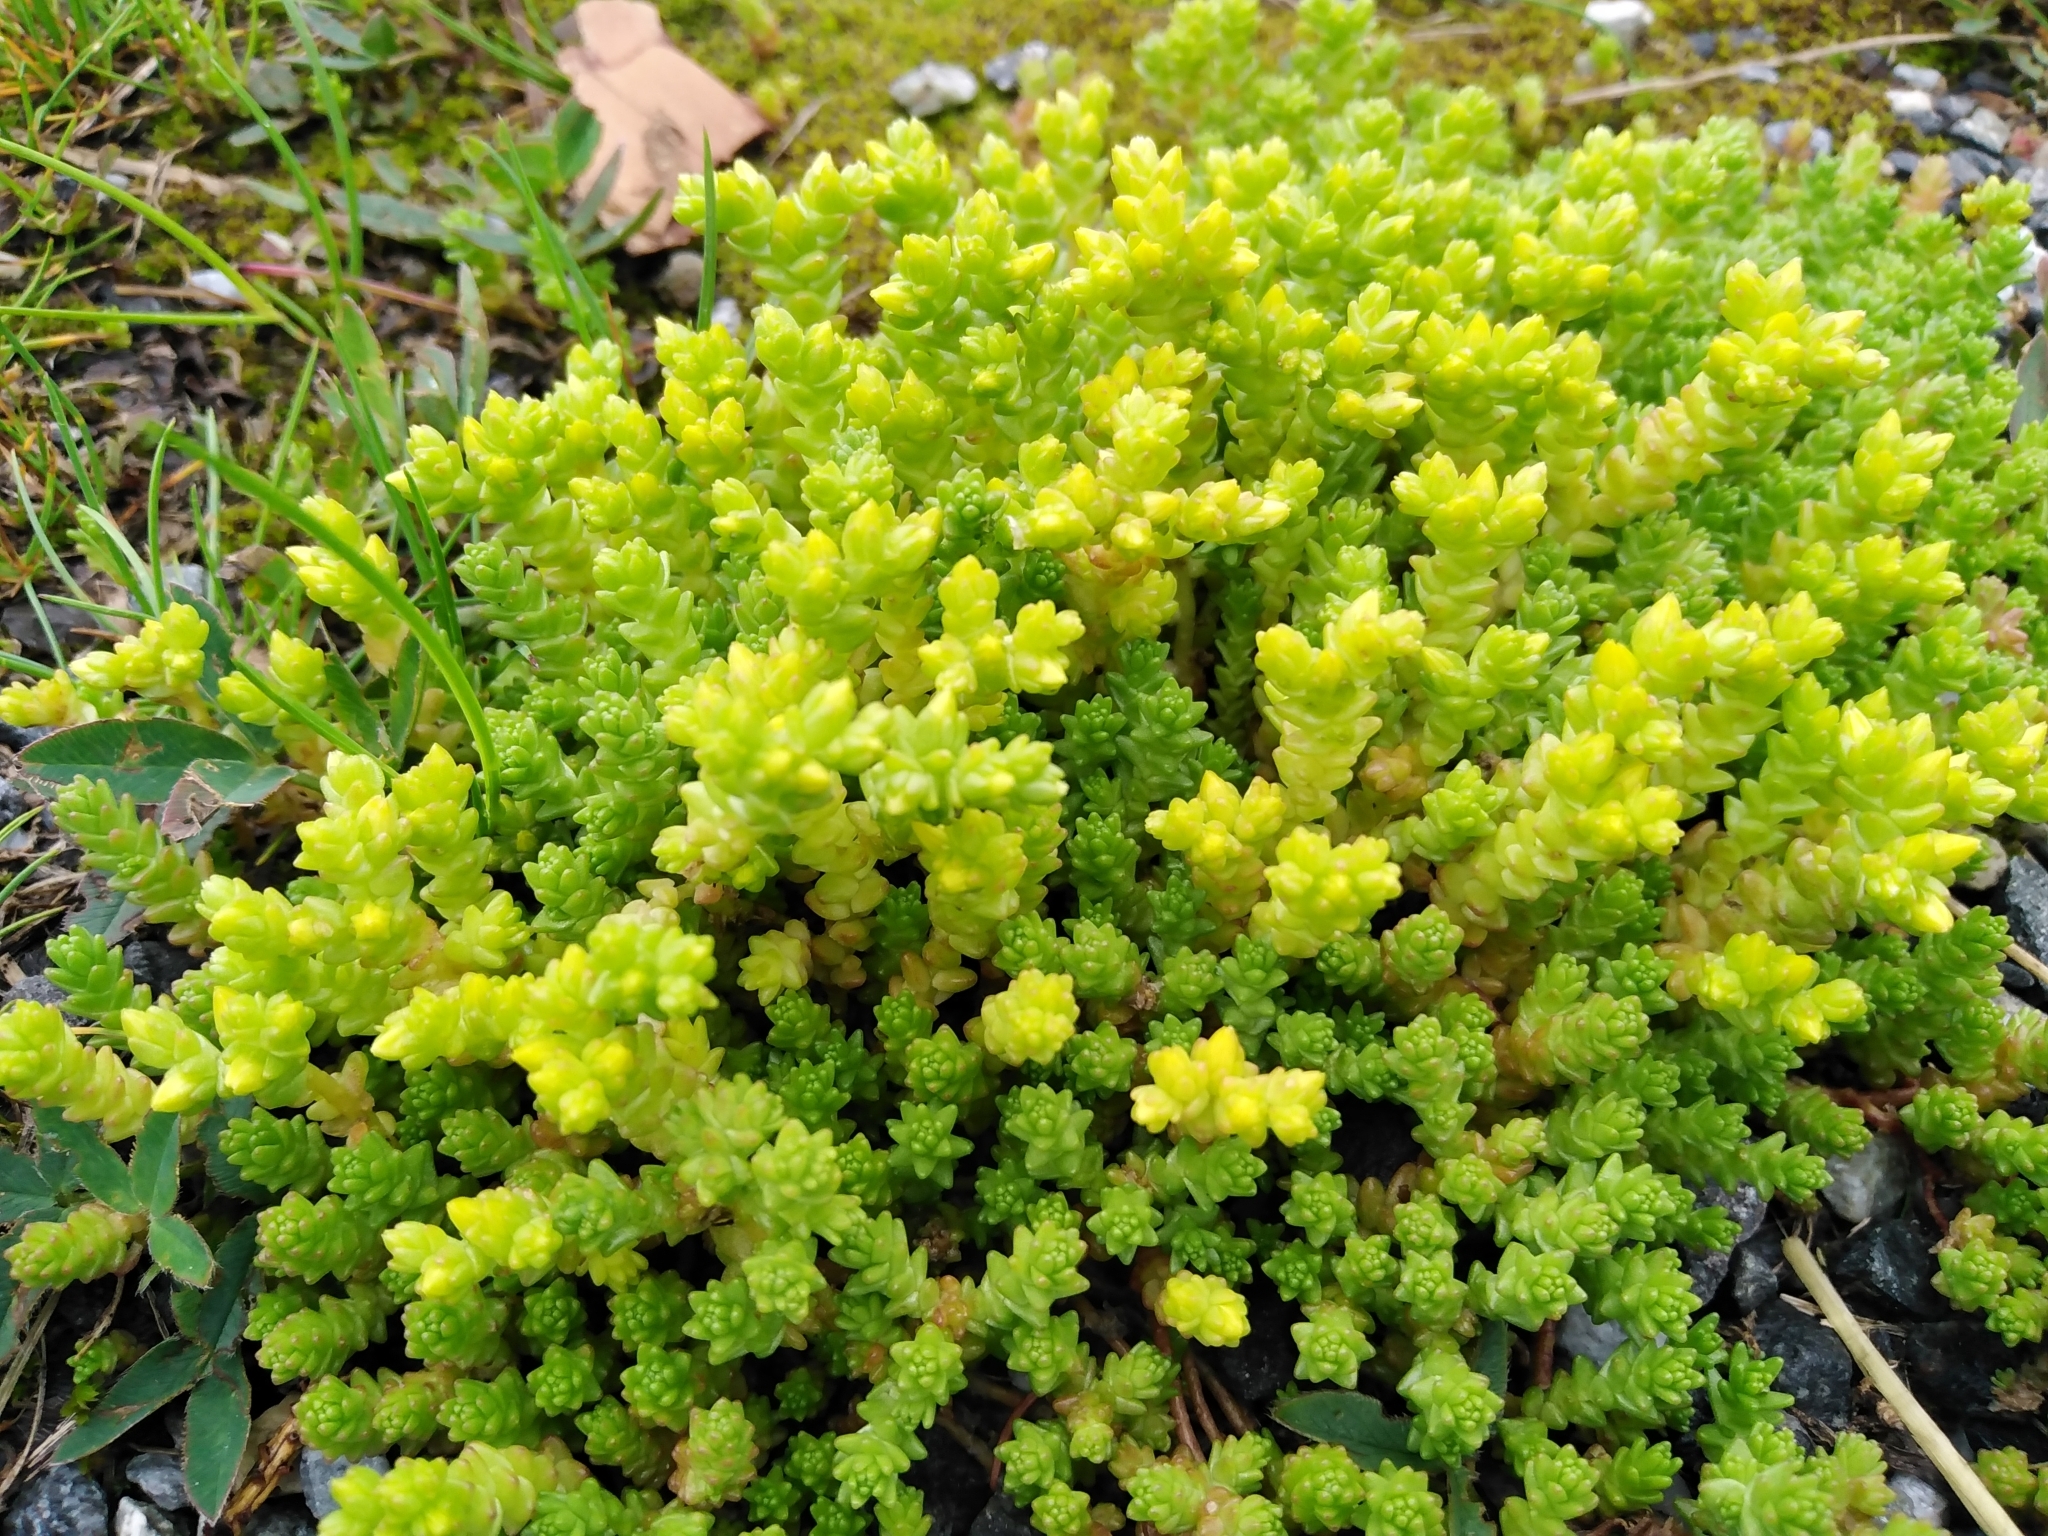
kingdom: Plantae
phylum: Tracheophyta
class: Magnoliopsida
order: Saxifragales
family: Crassulaceae
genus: Sedum
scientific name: Sedum acre
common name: Biting stonecrop
